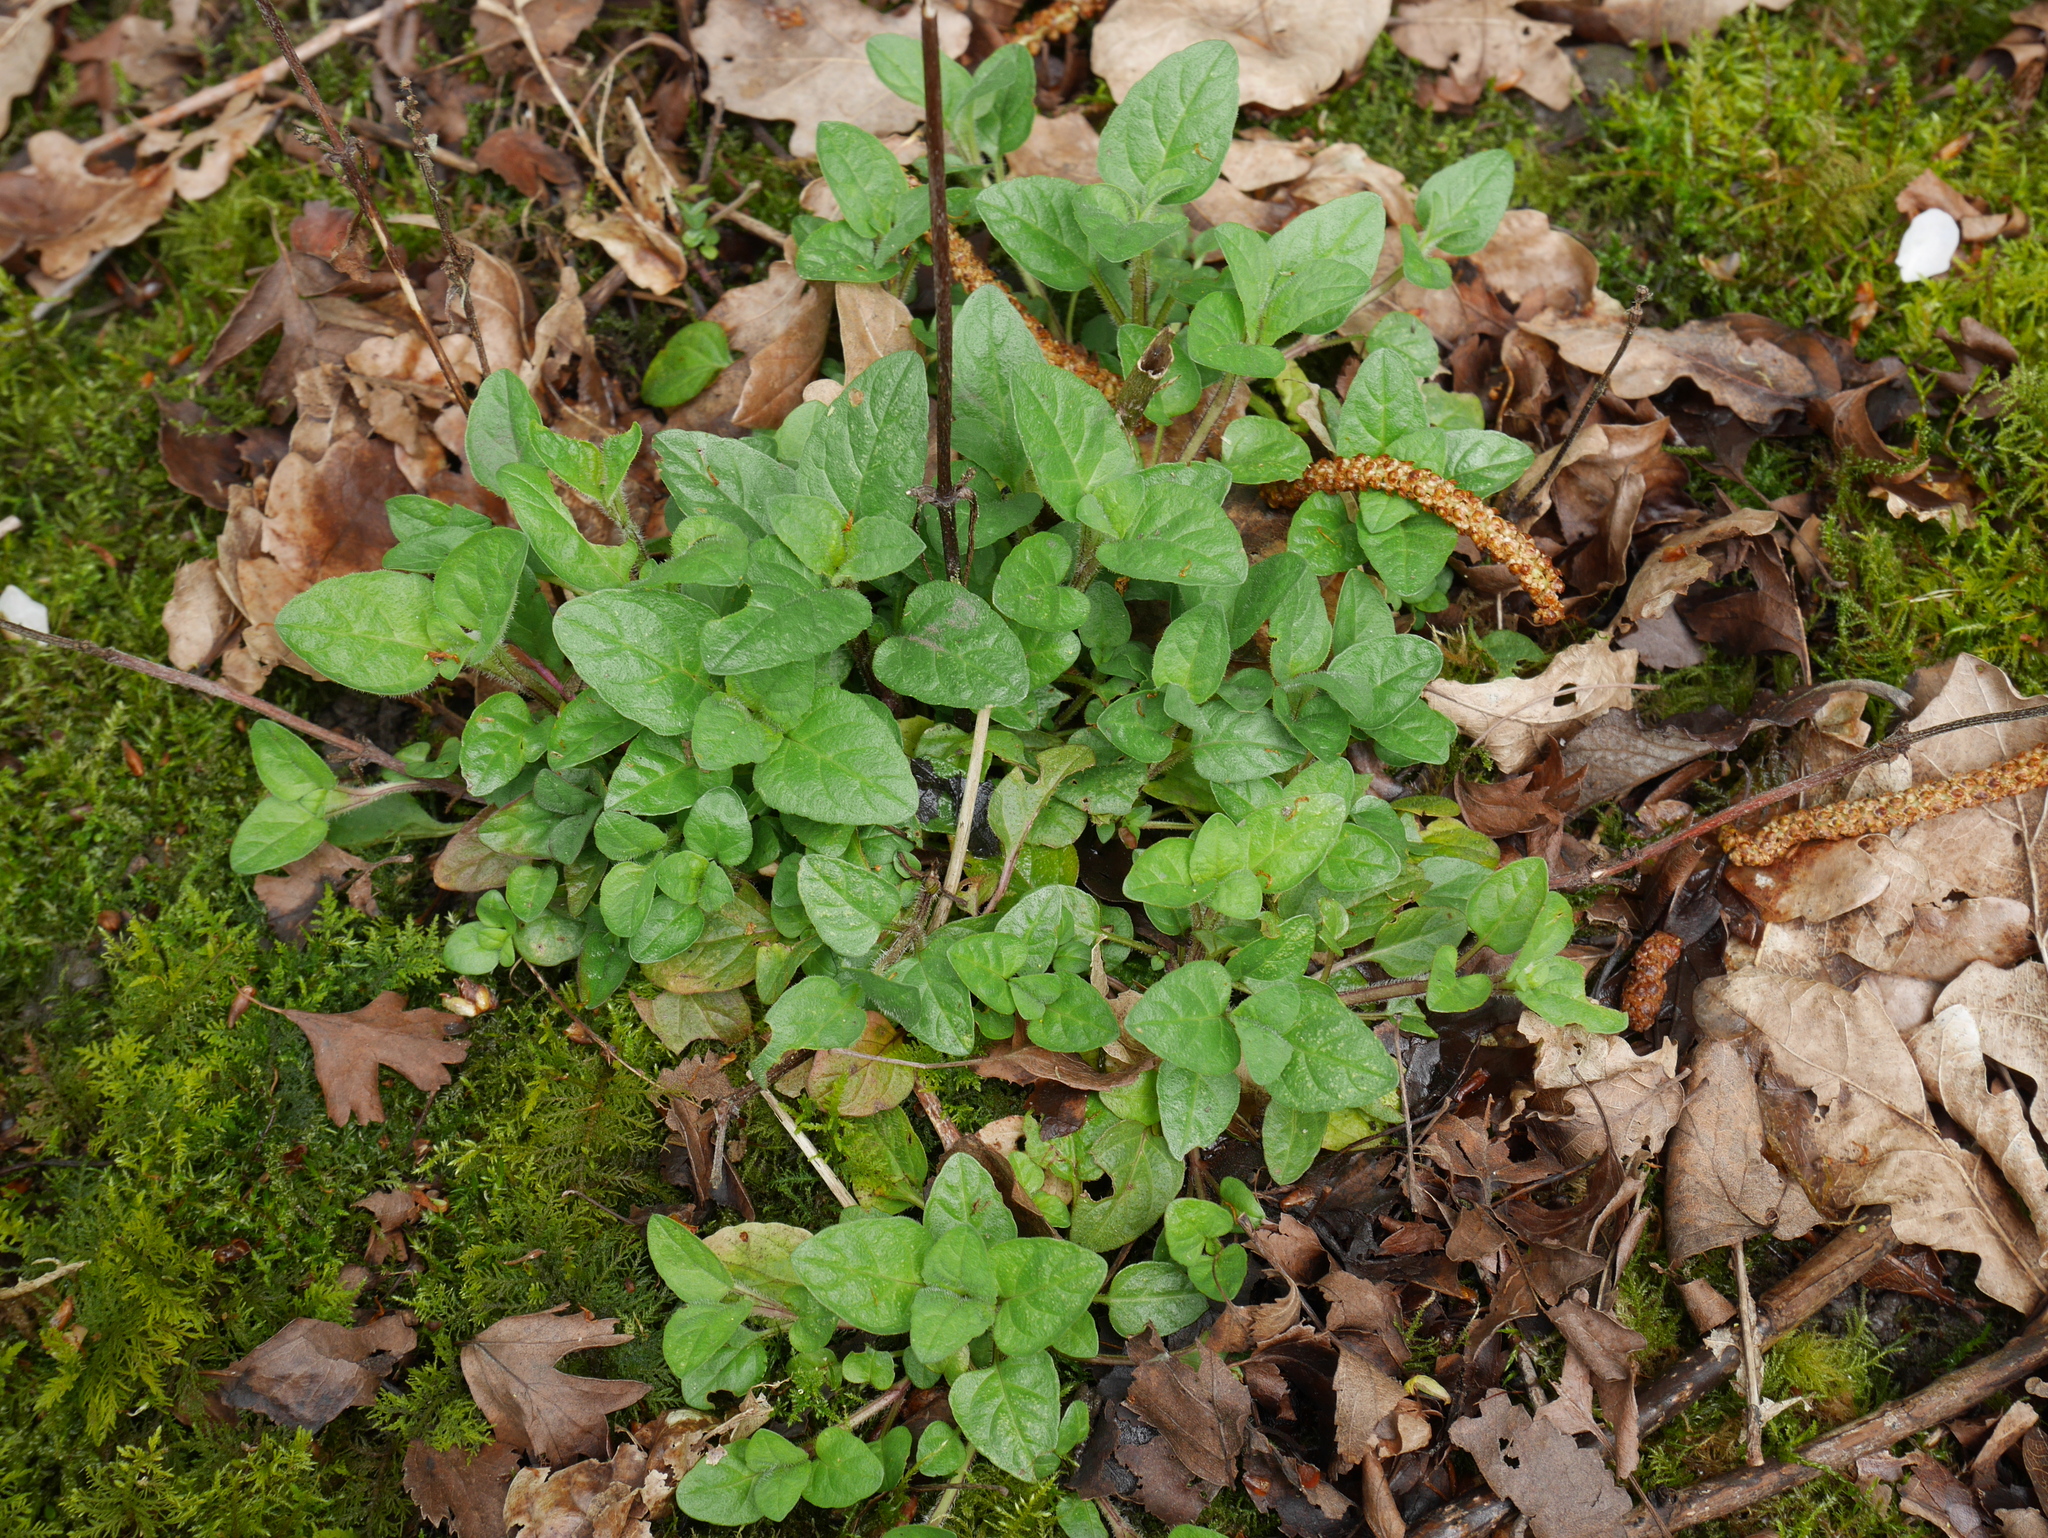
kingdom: Plantae
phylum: Tracheophyta
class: Magnoliopsida
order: Lamiales
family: Lamiaceae
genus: Prunella
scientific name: Prunella vulgaris
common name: Heal-all
